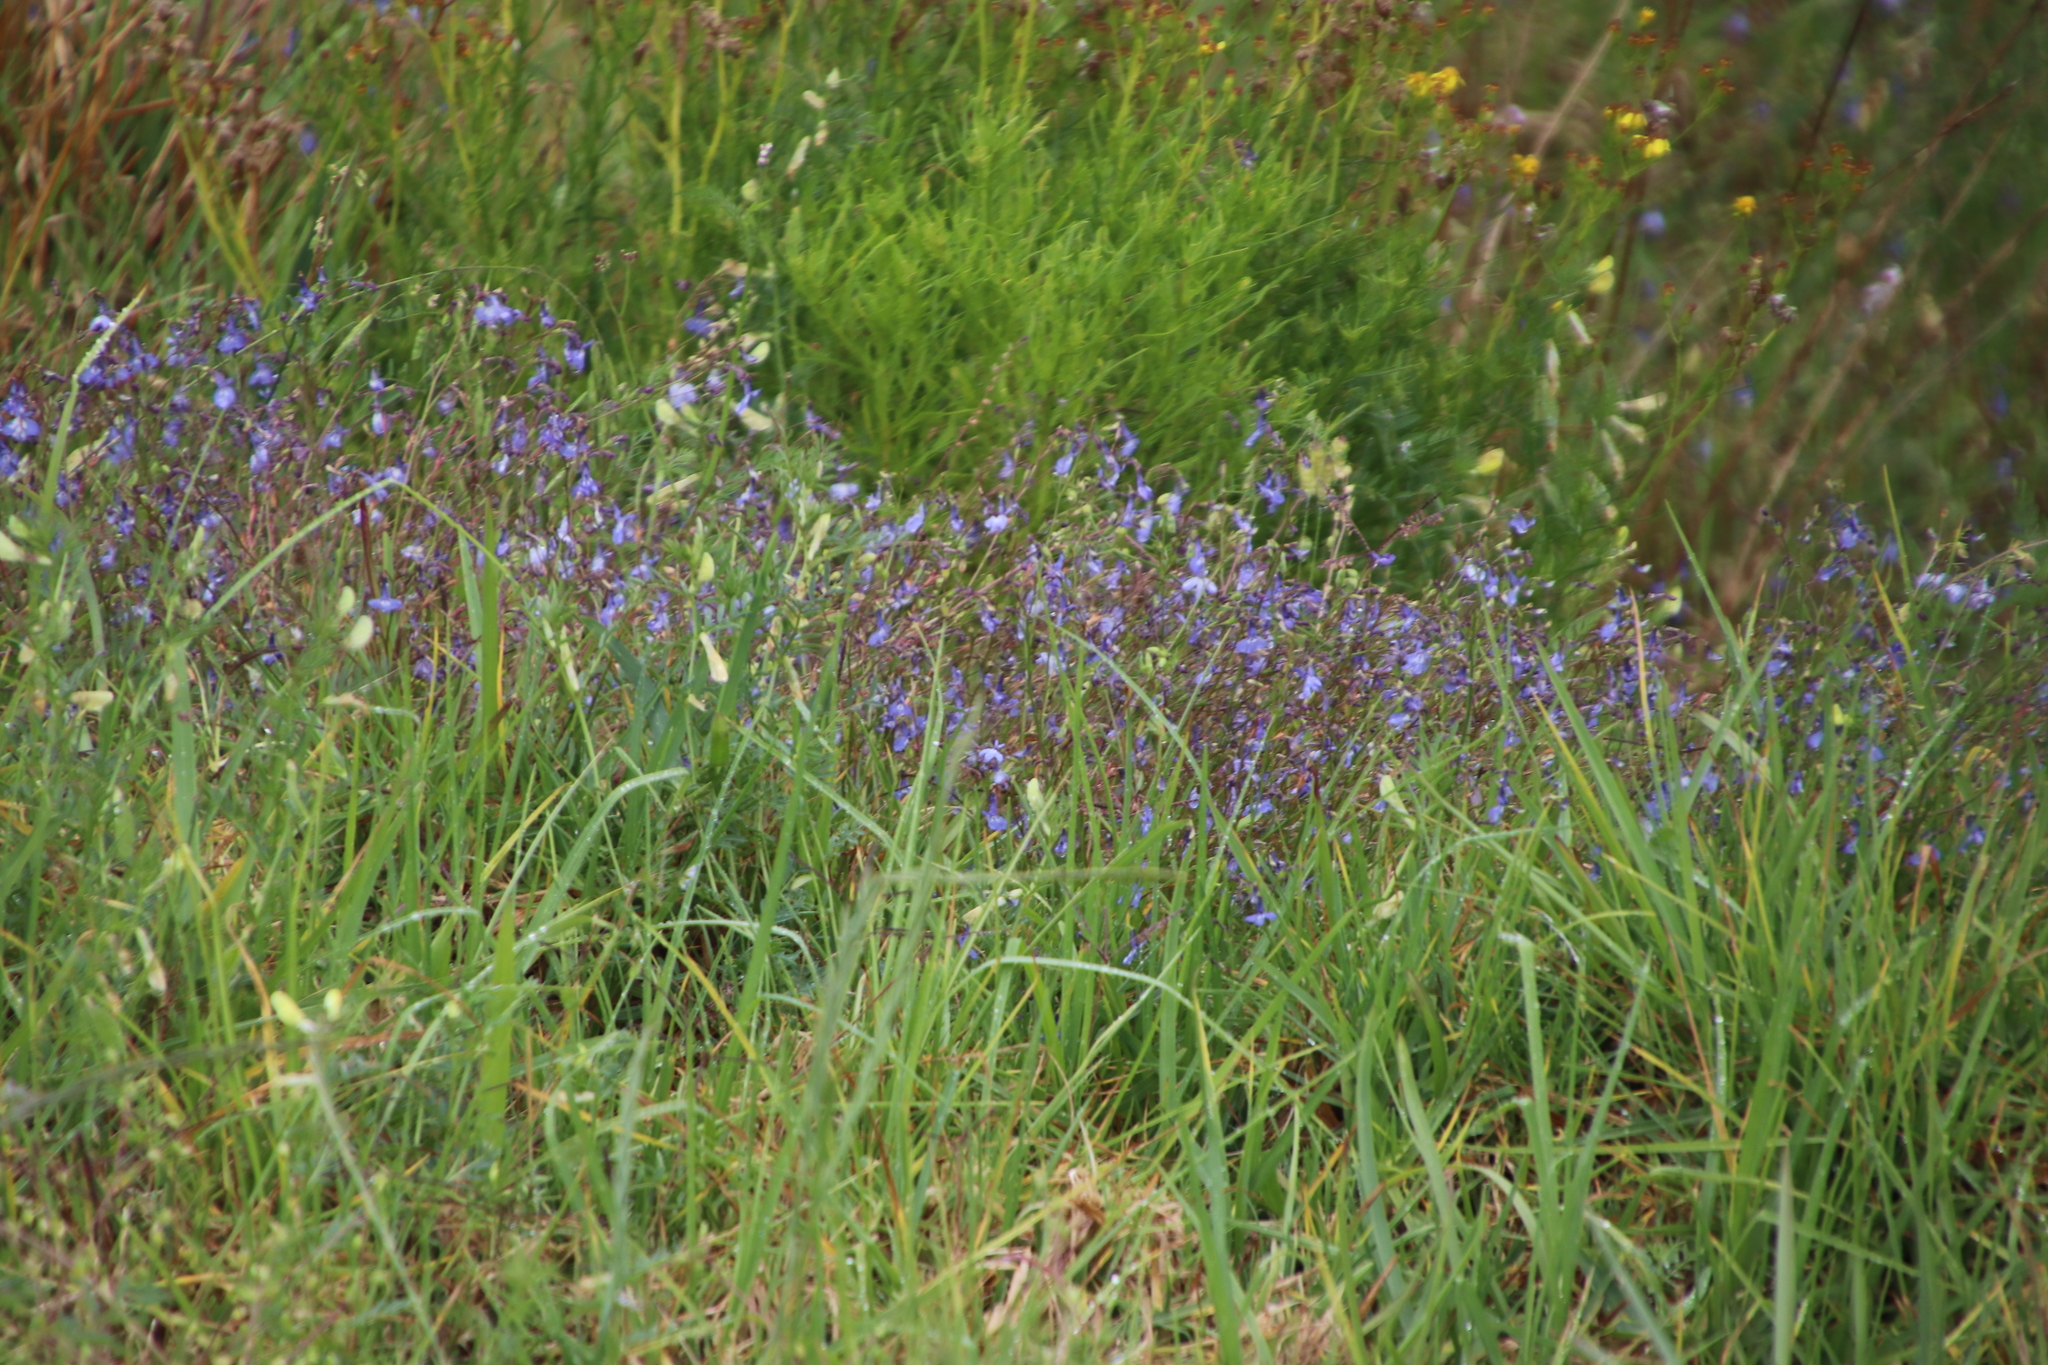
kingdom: Plantae
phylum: Tracheophyta
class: Magnoliopsida
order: Asterales
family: Campanulaceae
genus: Lobelia
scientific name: Lobelia erinus
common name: Edging lobelia
